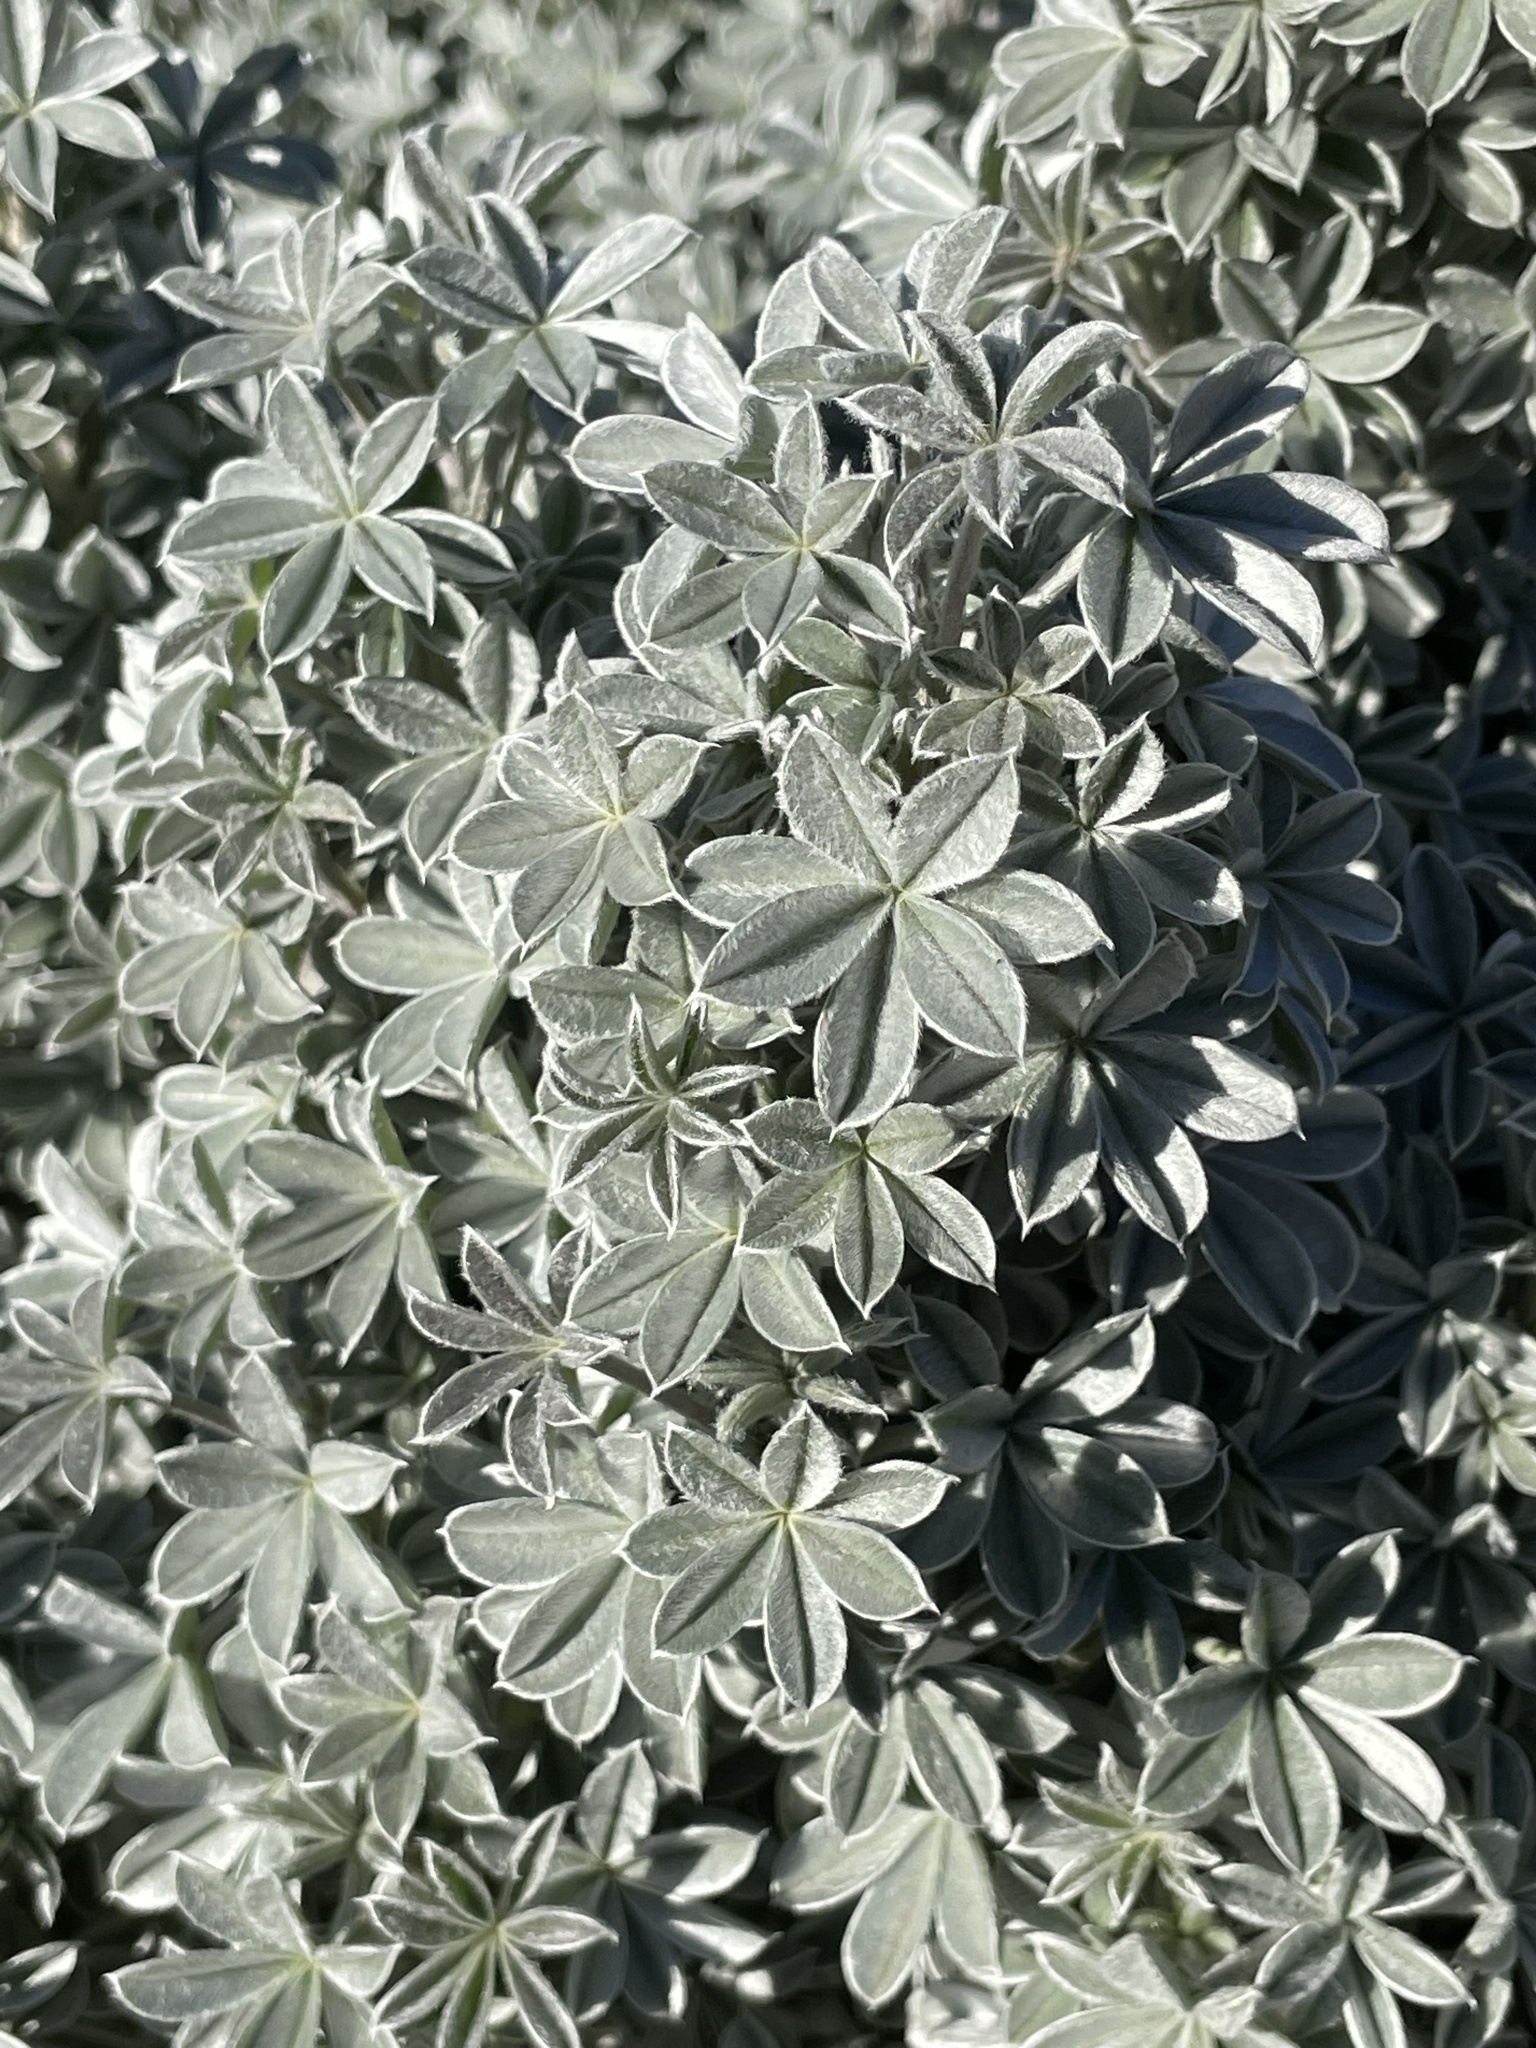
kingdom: Plantae
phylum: Tracheophyta
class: Magnoliopsida
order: Fabales
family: Fabaceae
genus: Lupinus
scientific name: Lupinus albifrons
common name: Foothill lupine
